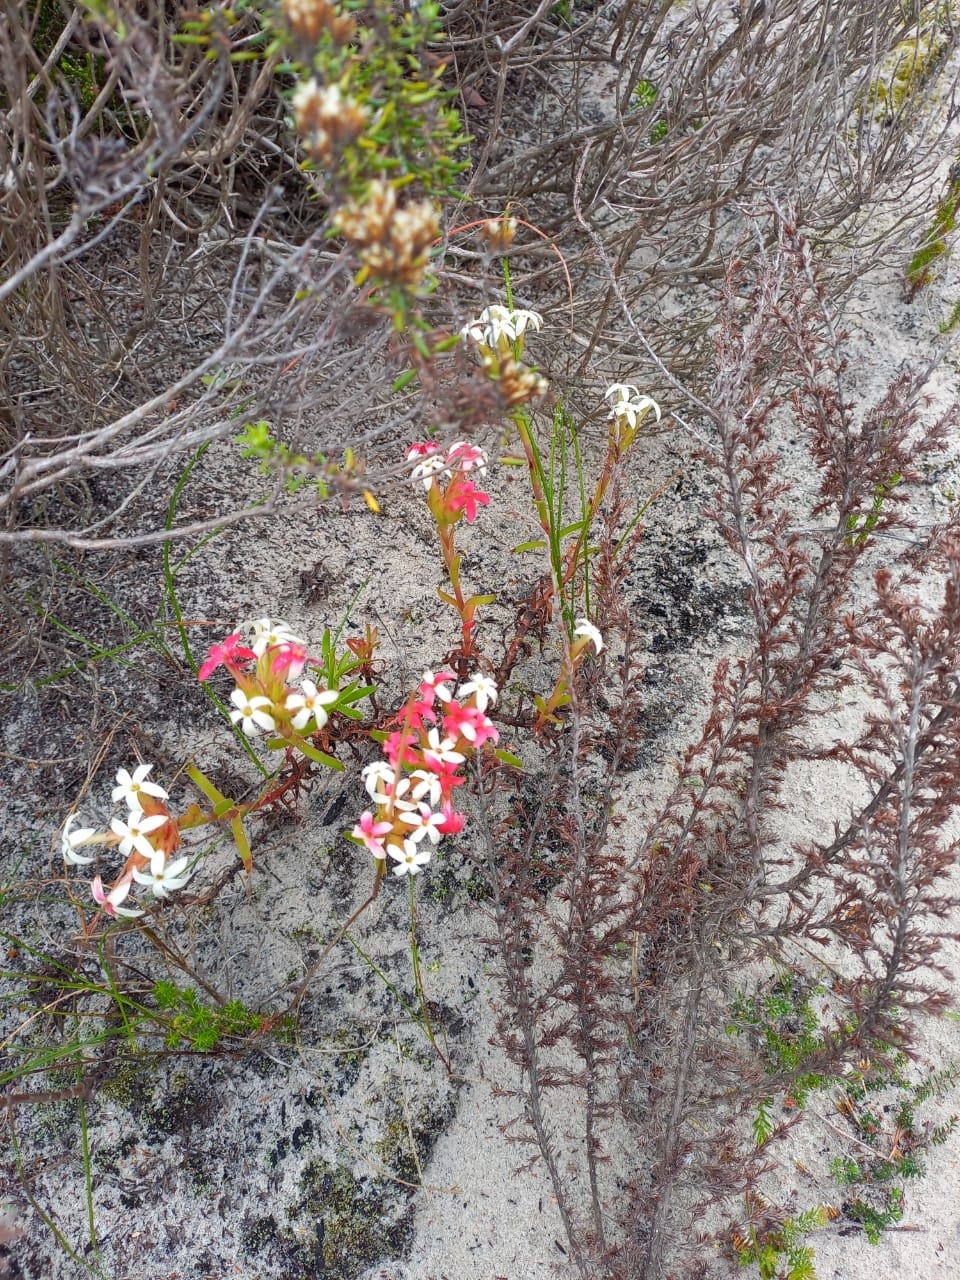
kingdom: Plantae
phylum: Tracheophyta
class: Magnoliopsida
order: Saxifragales
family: Crassulaceae
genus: Crassula
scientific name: Crassula fascicularis
